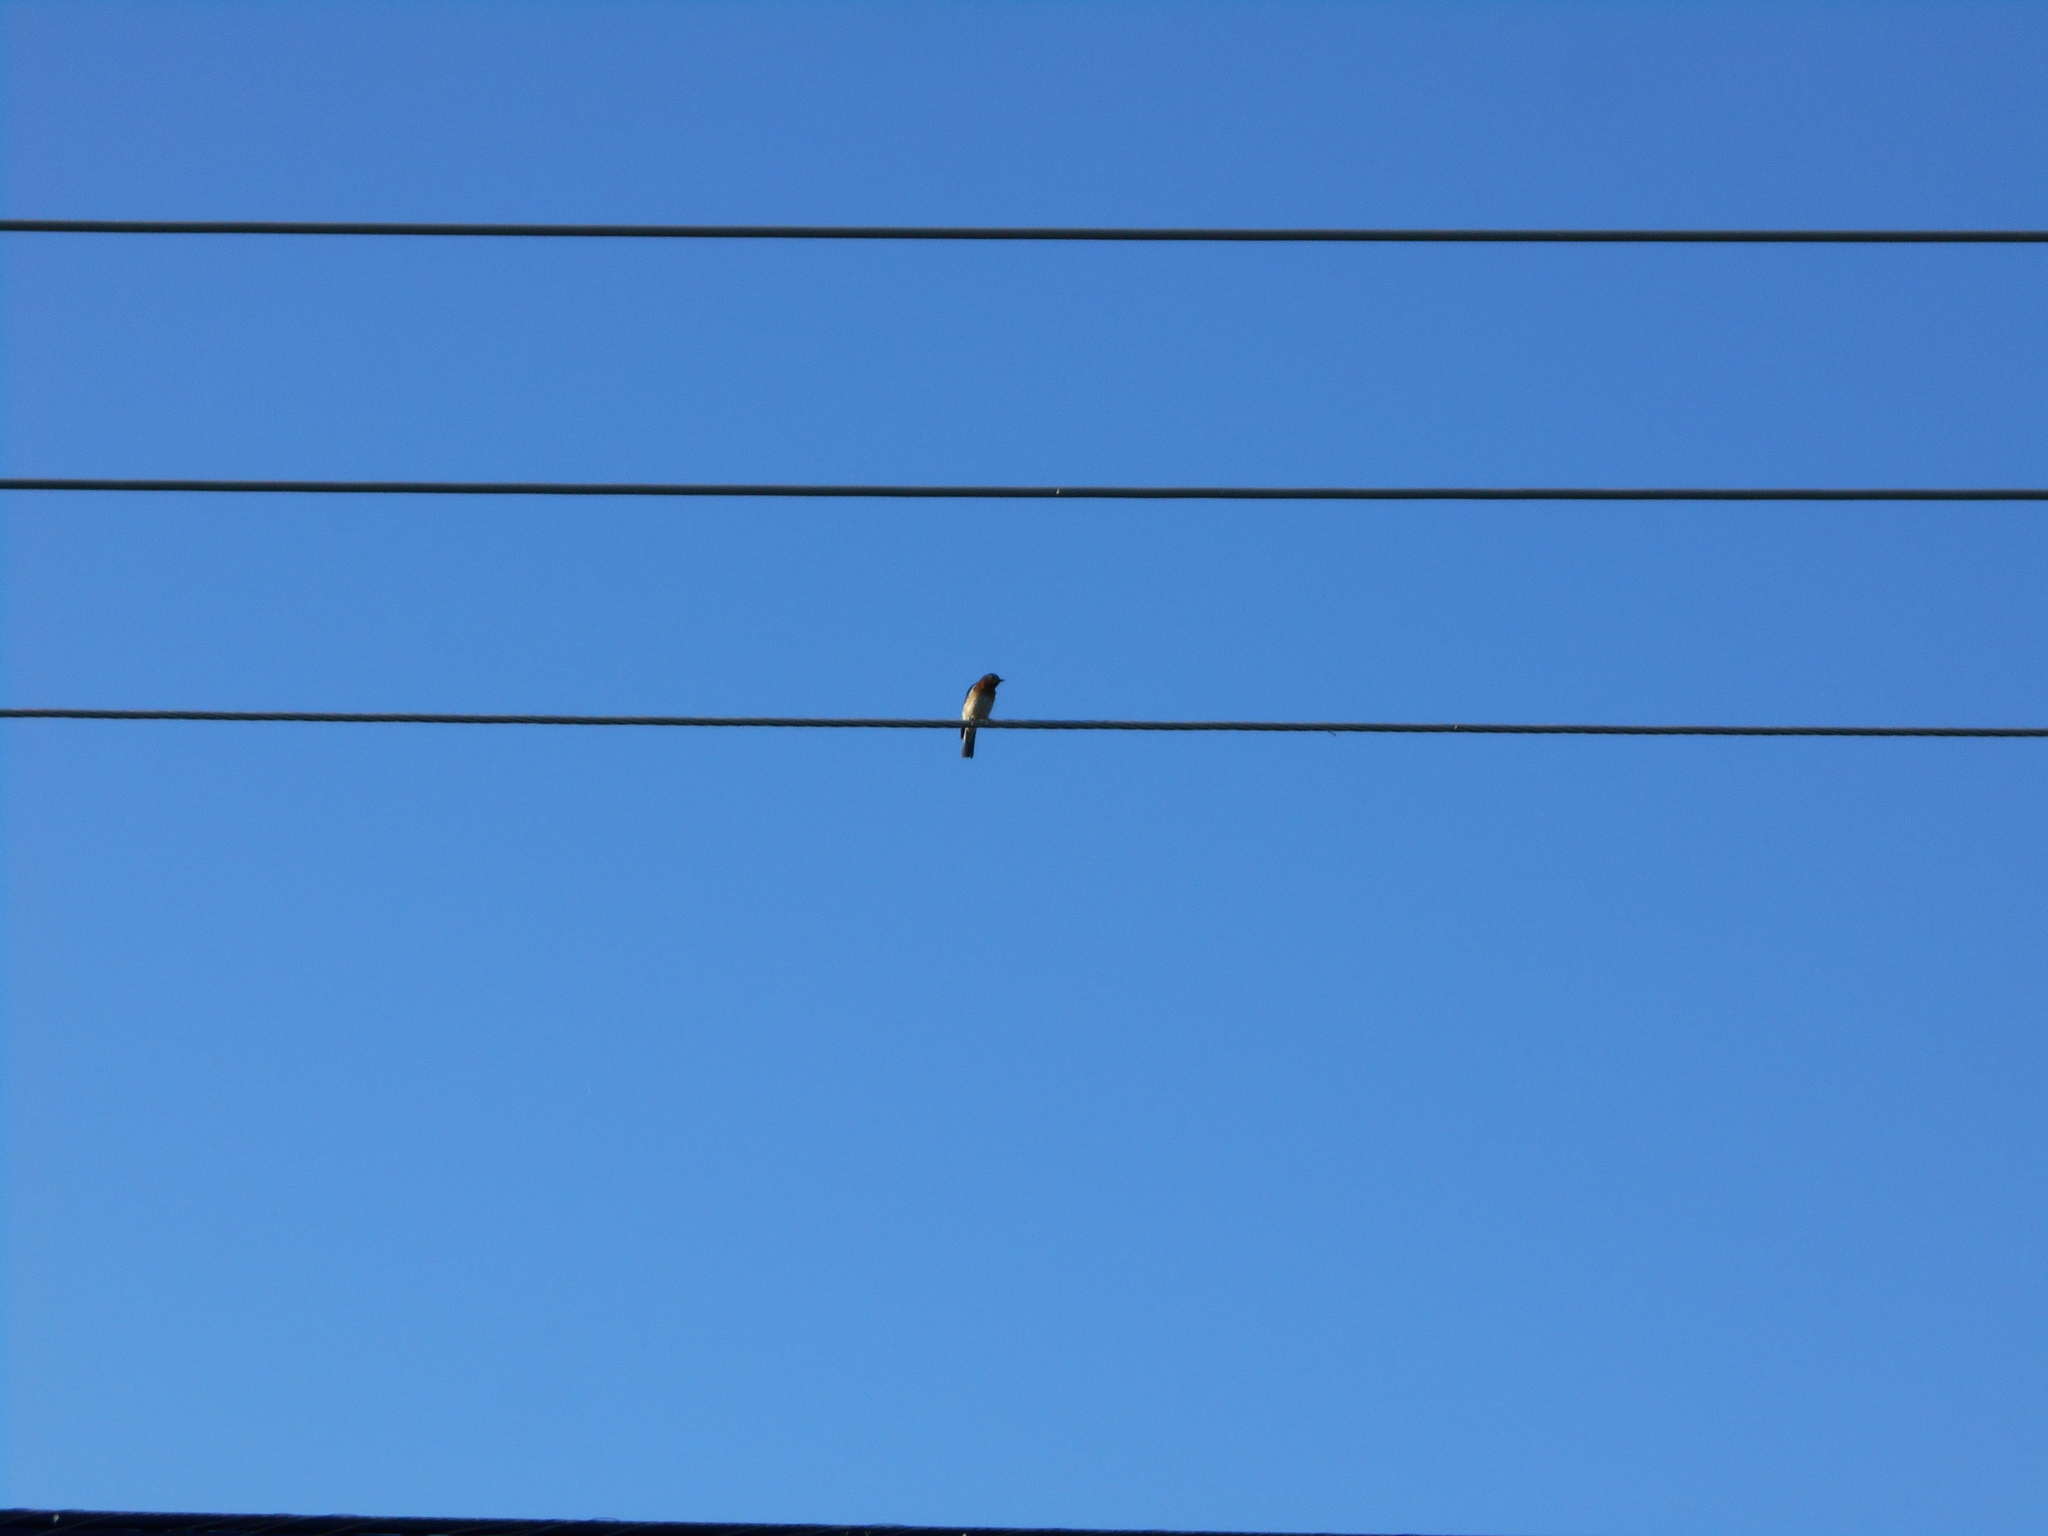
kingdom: Animalia
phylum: Chordata
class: Aves
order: Passeriformes
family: Turdidae
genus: Sialia
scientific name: Sialia sialis
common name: Eastern bluebird
